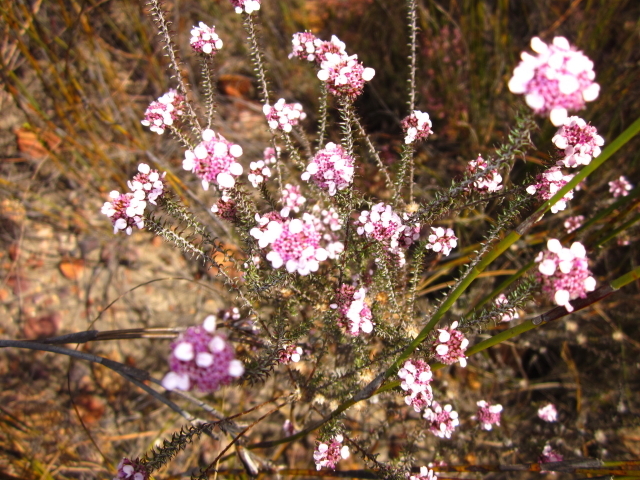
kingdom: Plantae
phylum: Tracheophyta
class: Magnoliopsida
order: Asterales
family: Asteraceae
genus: Disparago
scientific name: Disparago tortilis
